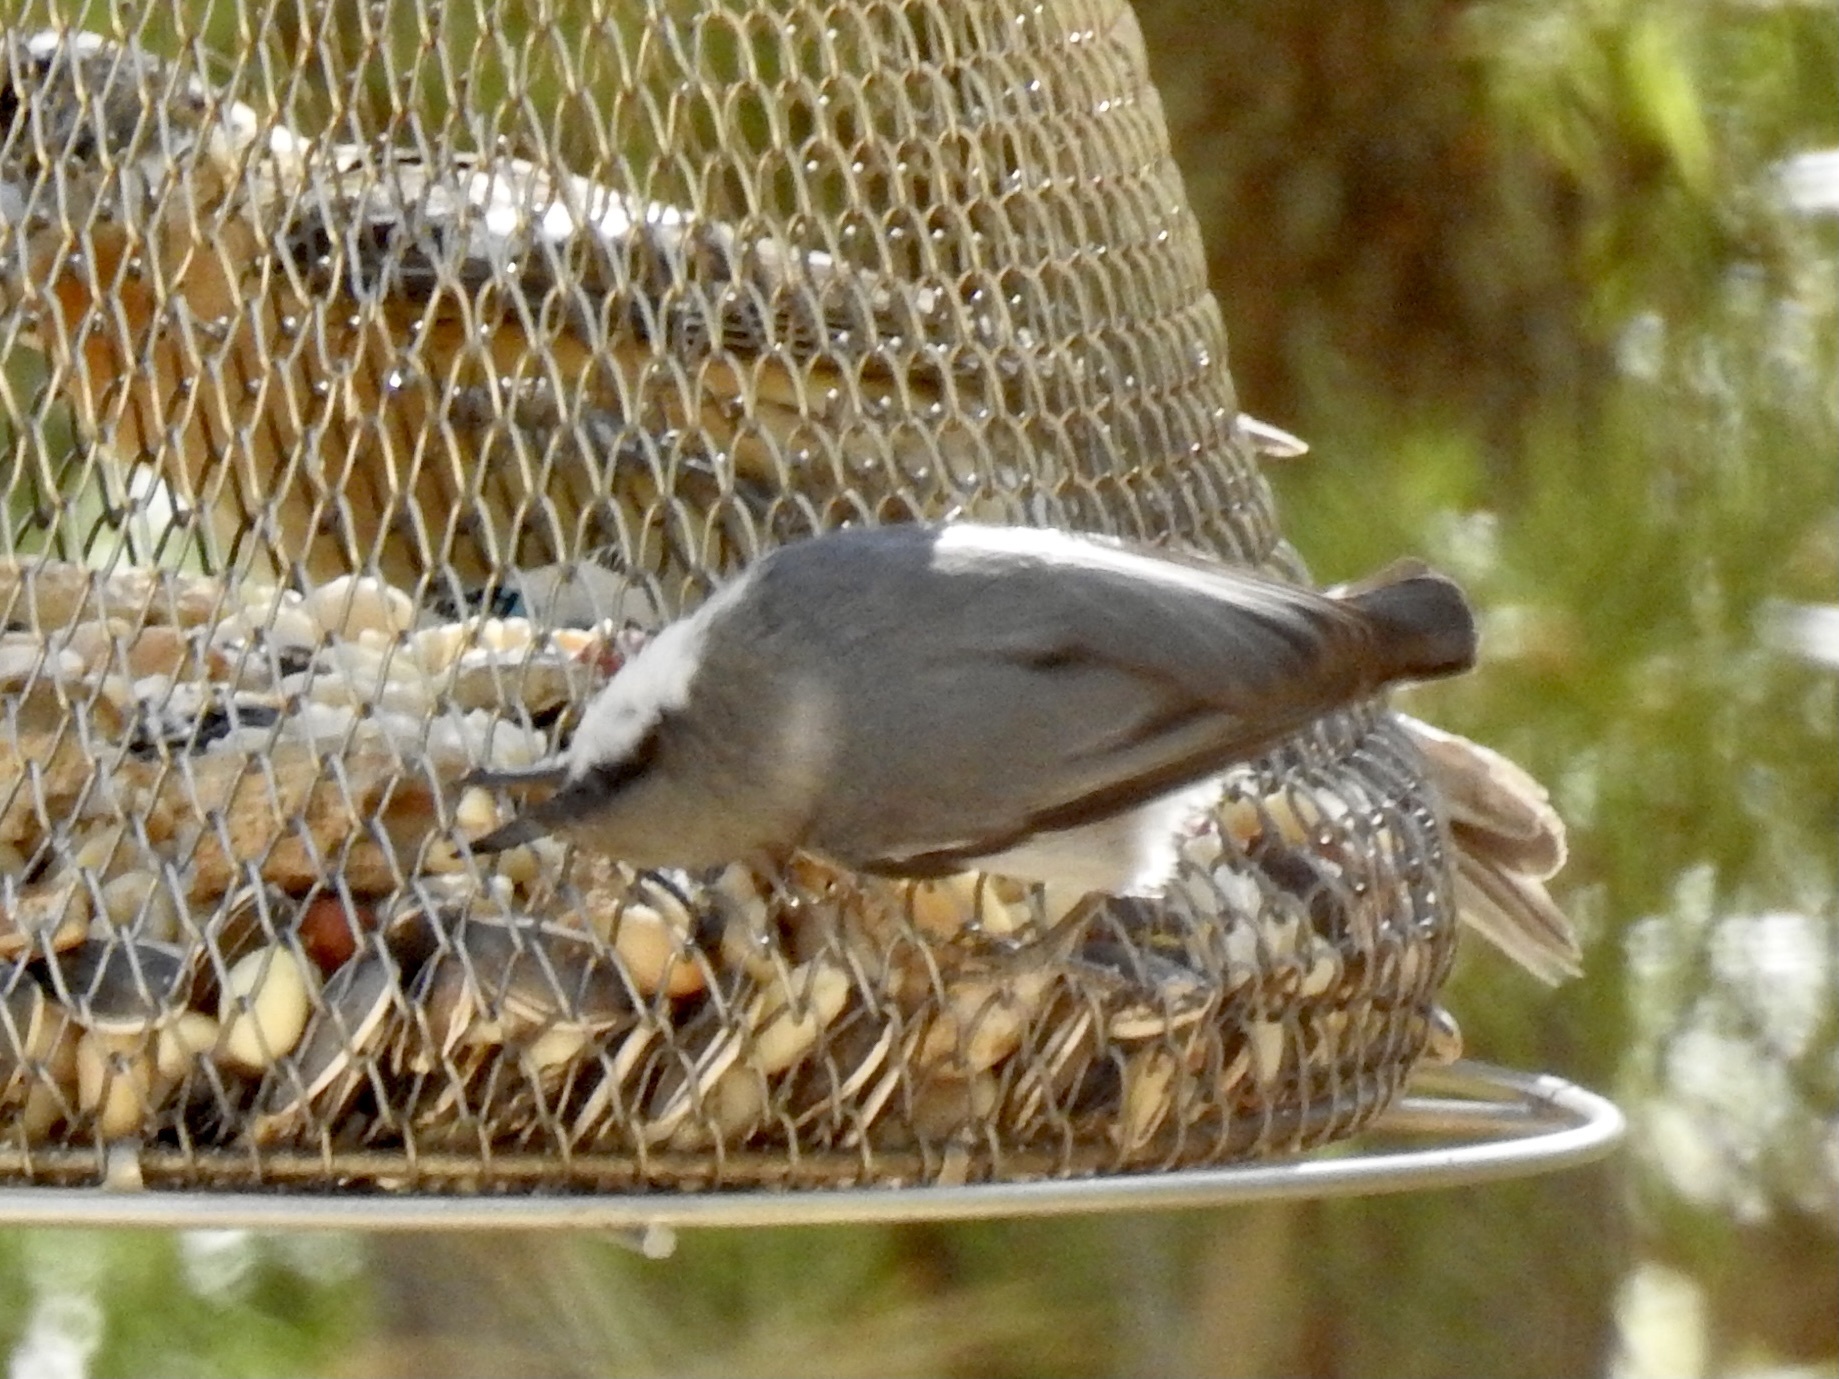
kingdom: Animalia
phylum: Chordata
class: Aves
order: Passeriformes
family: Sittidae
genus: Sitta
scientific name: Sitta pygmaea
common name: Pygmy nuthatch
